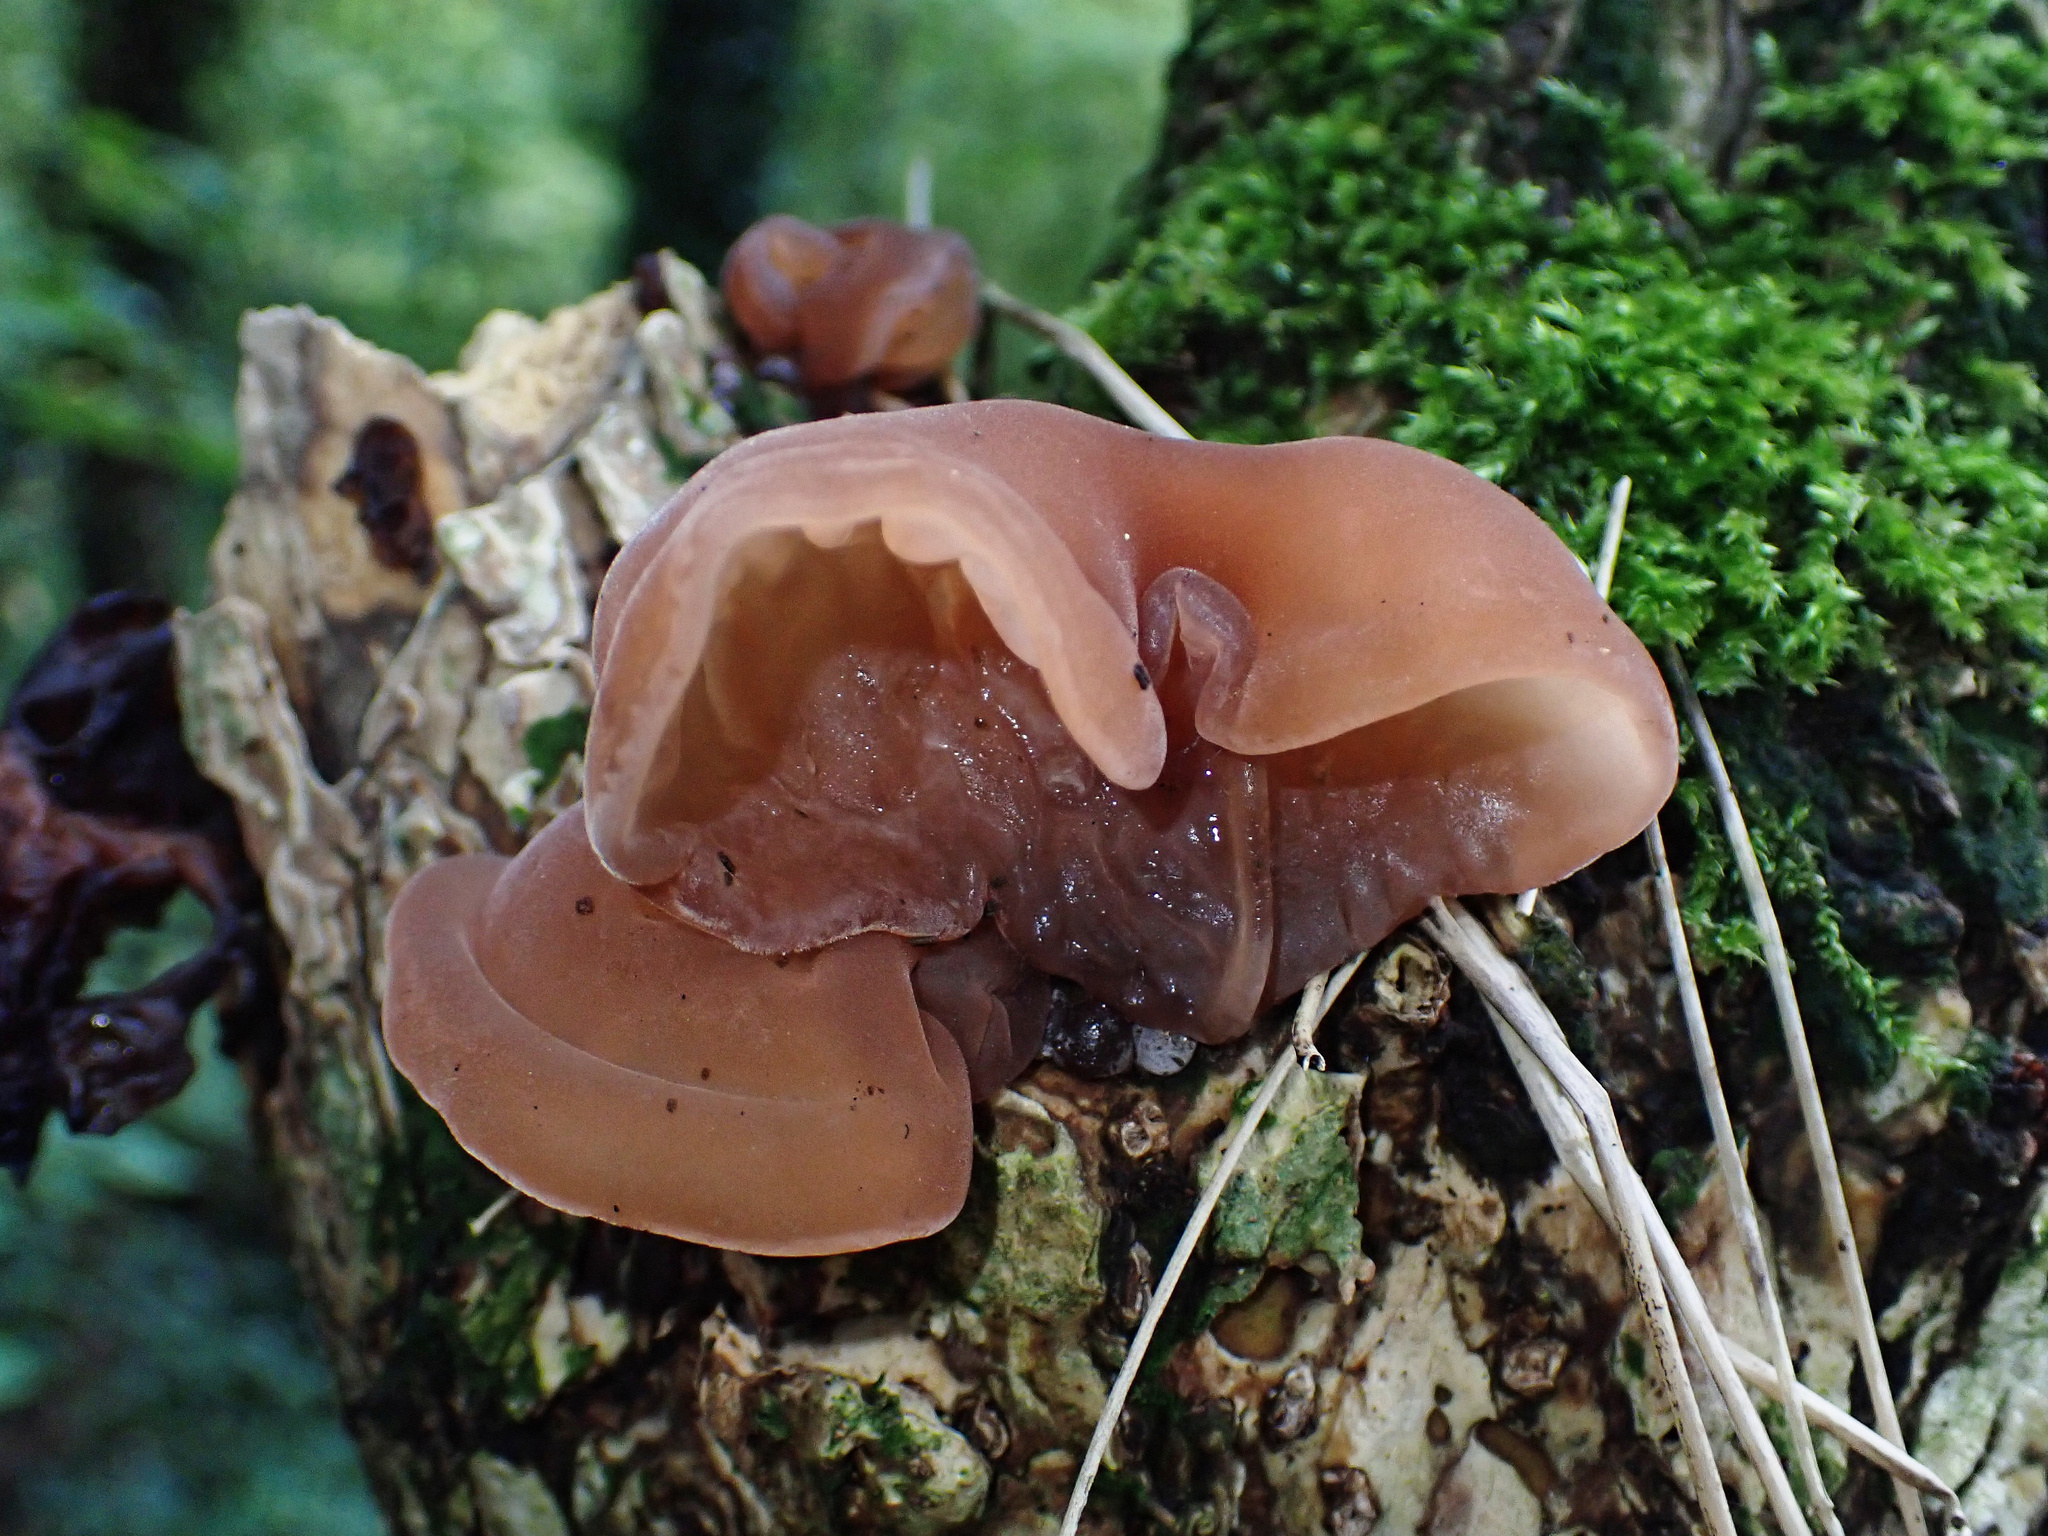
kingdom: Fungi
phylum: Basidiomycota
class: Agaricomycetes
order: Auriculariales
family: Auriculariaceae
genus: Auricularia
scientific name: Auricularia auricula-judae
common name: Jelly ear
